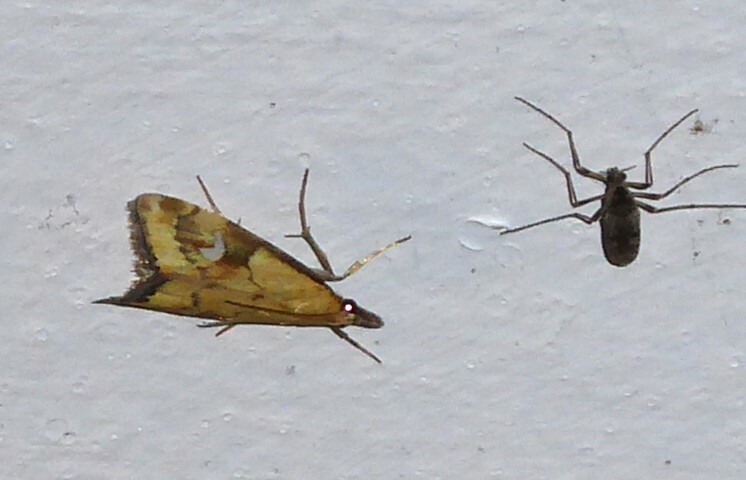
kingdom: Animalia
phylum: Arthropoda
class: Insecta
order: Lepidoptera
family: Crambidae
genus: Glaucocharis
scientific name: Glaucocharis lepidella
